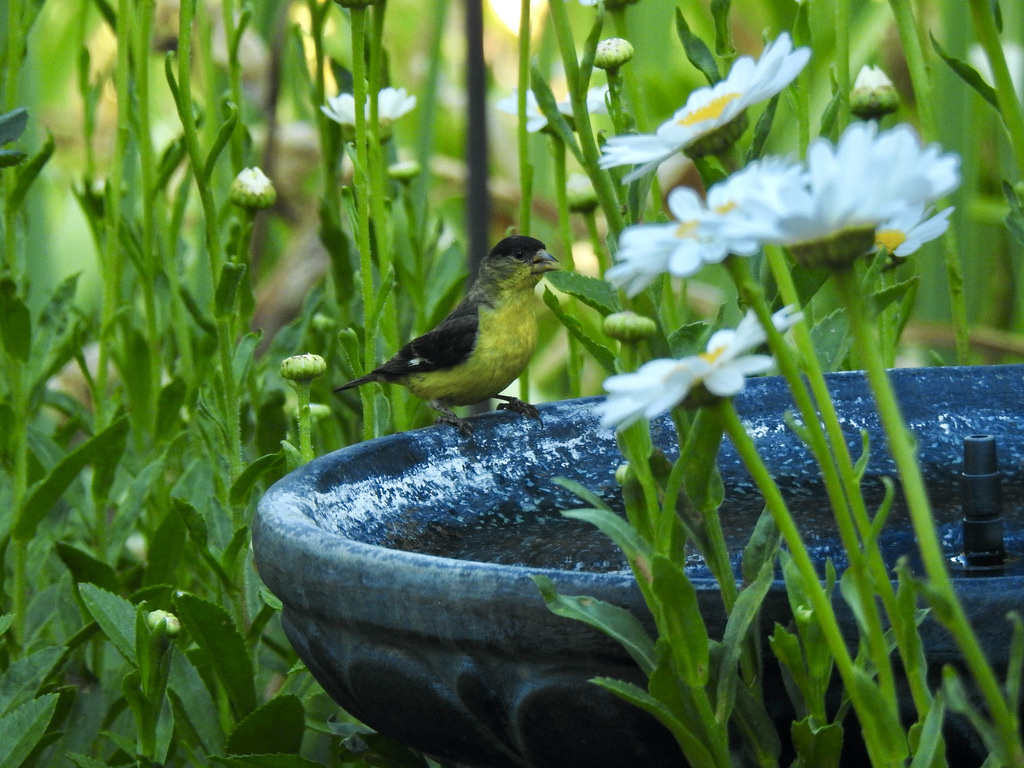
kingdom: Animalia
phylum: Chordata
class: Aves
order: Passeriformes
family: Fringillidae
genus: Spinus
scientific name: Spinus psaltria
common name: Lesser goldfinch
